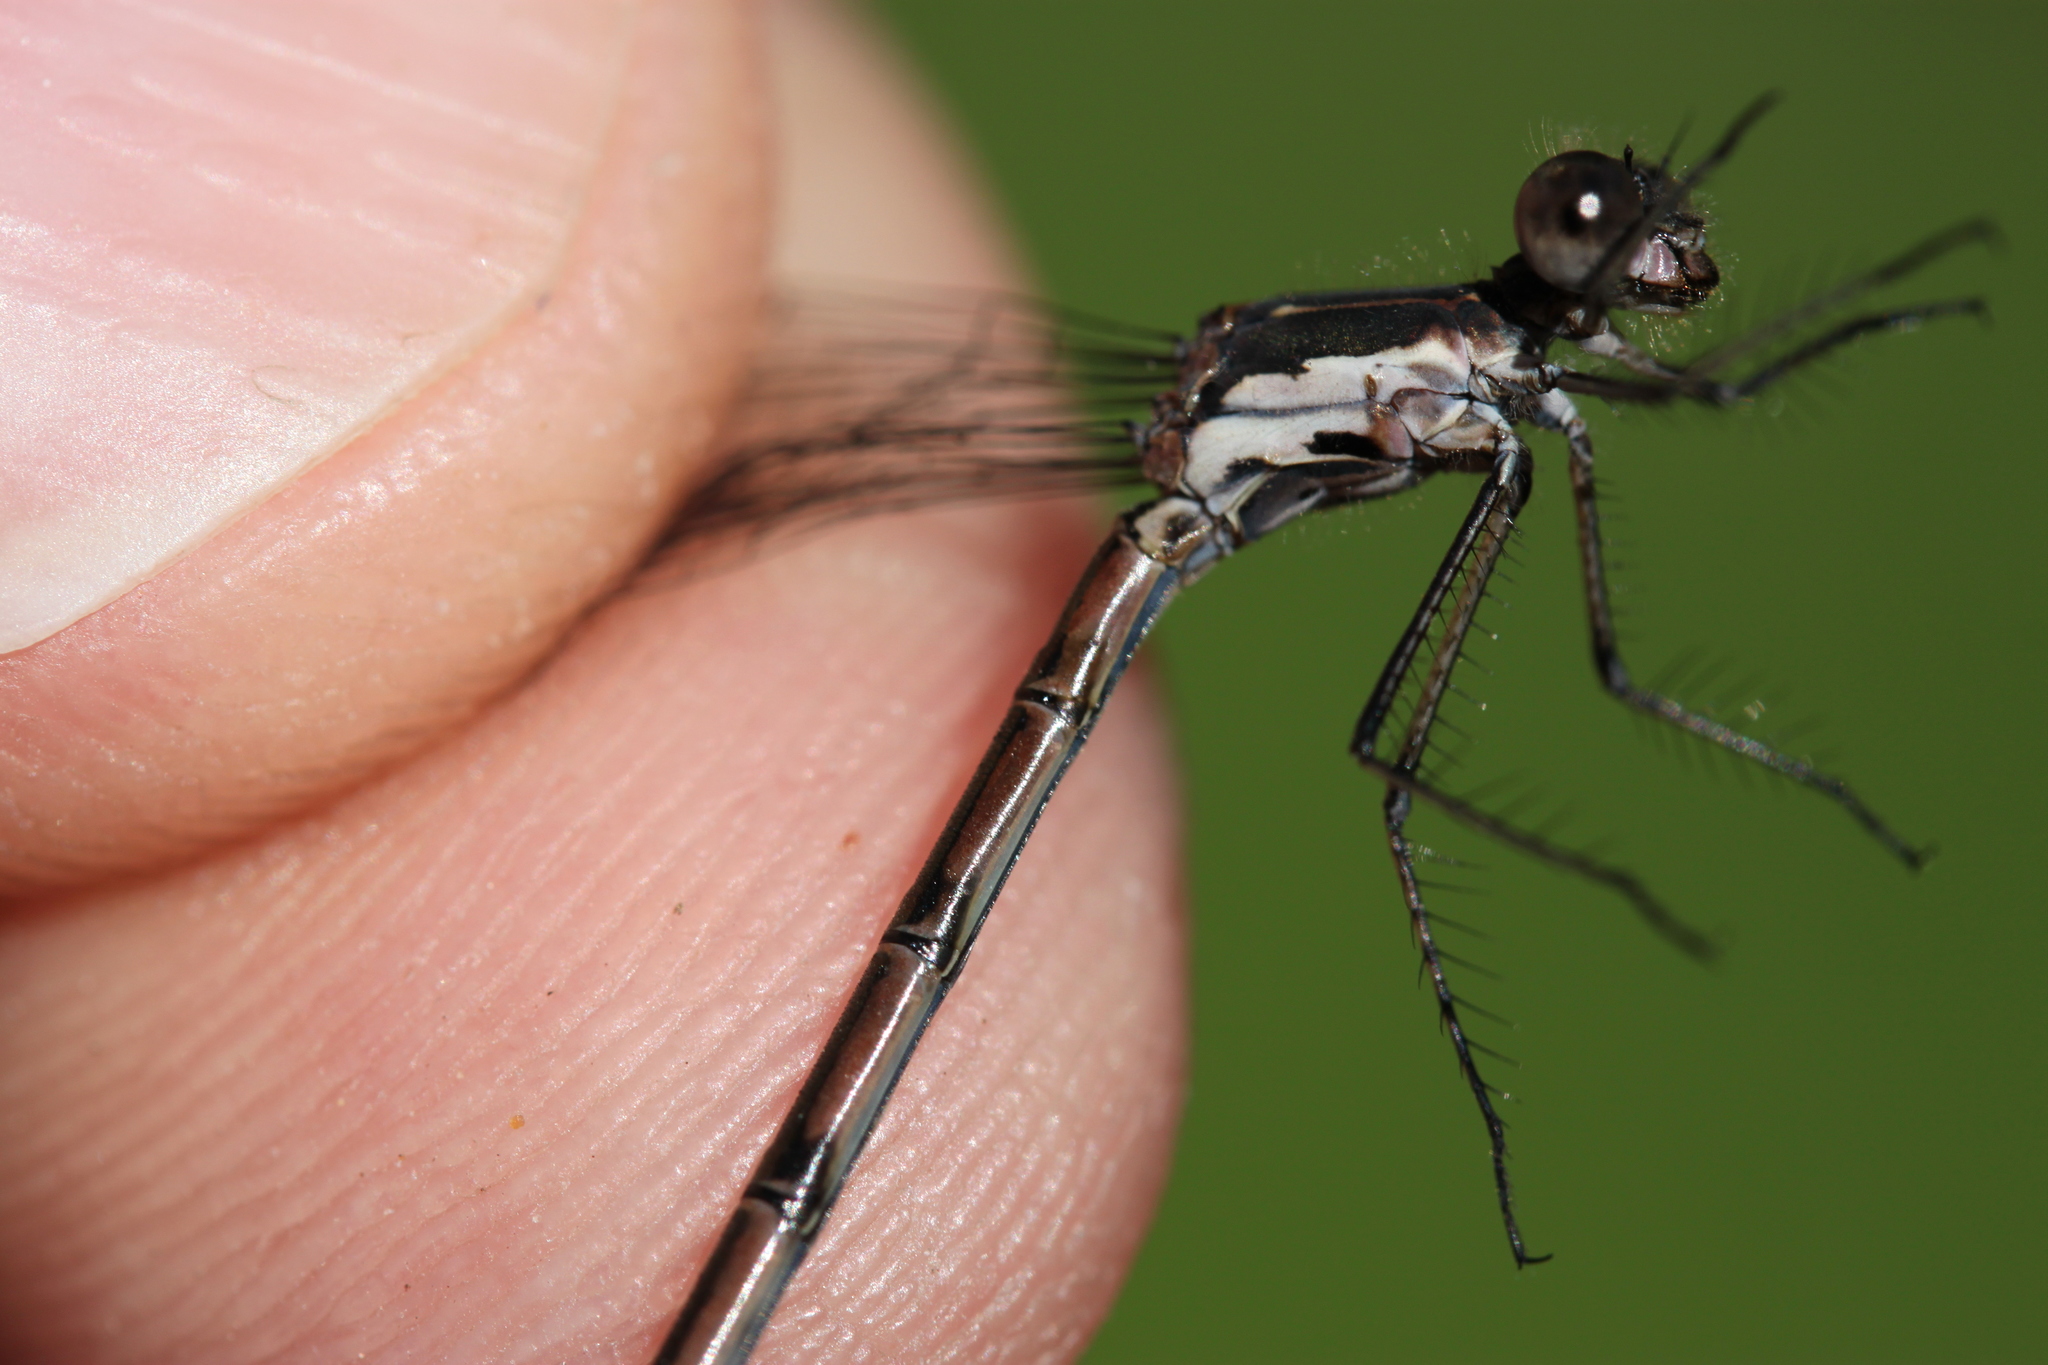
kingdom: Animalia
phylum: Arthropoda
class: Insecta
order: Odonata
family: Lestidae
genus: Lestes
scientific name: Lestes congener
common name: Spotted spreadwing
